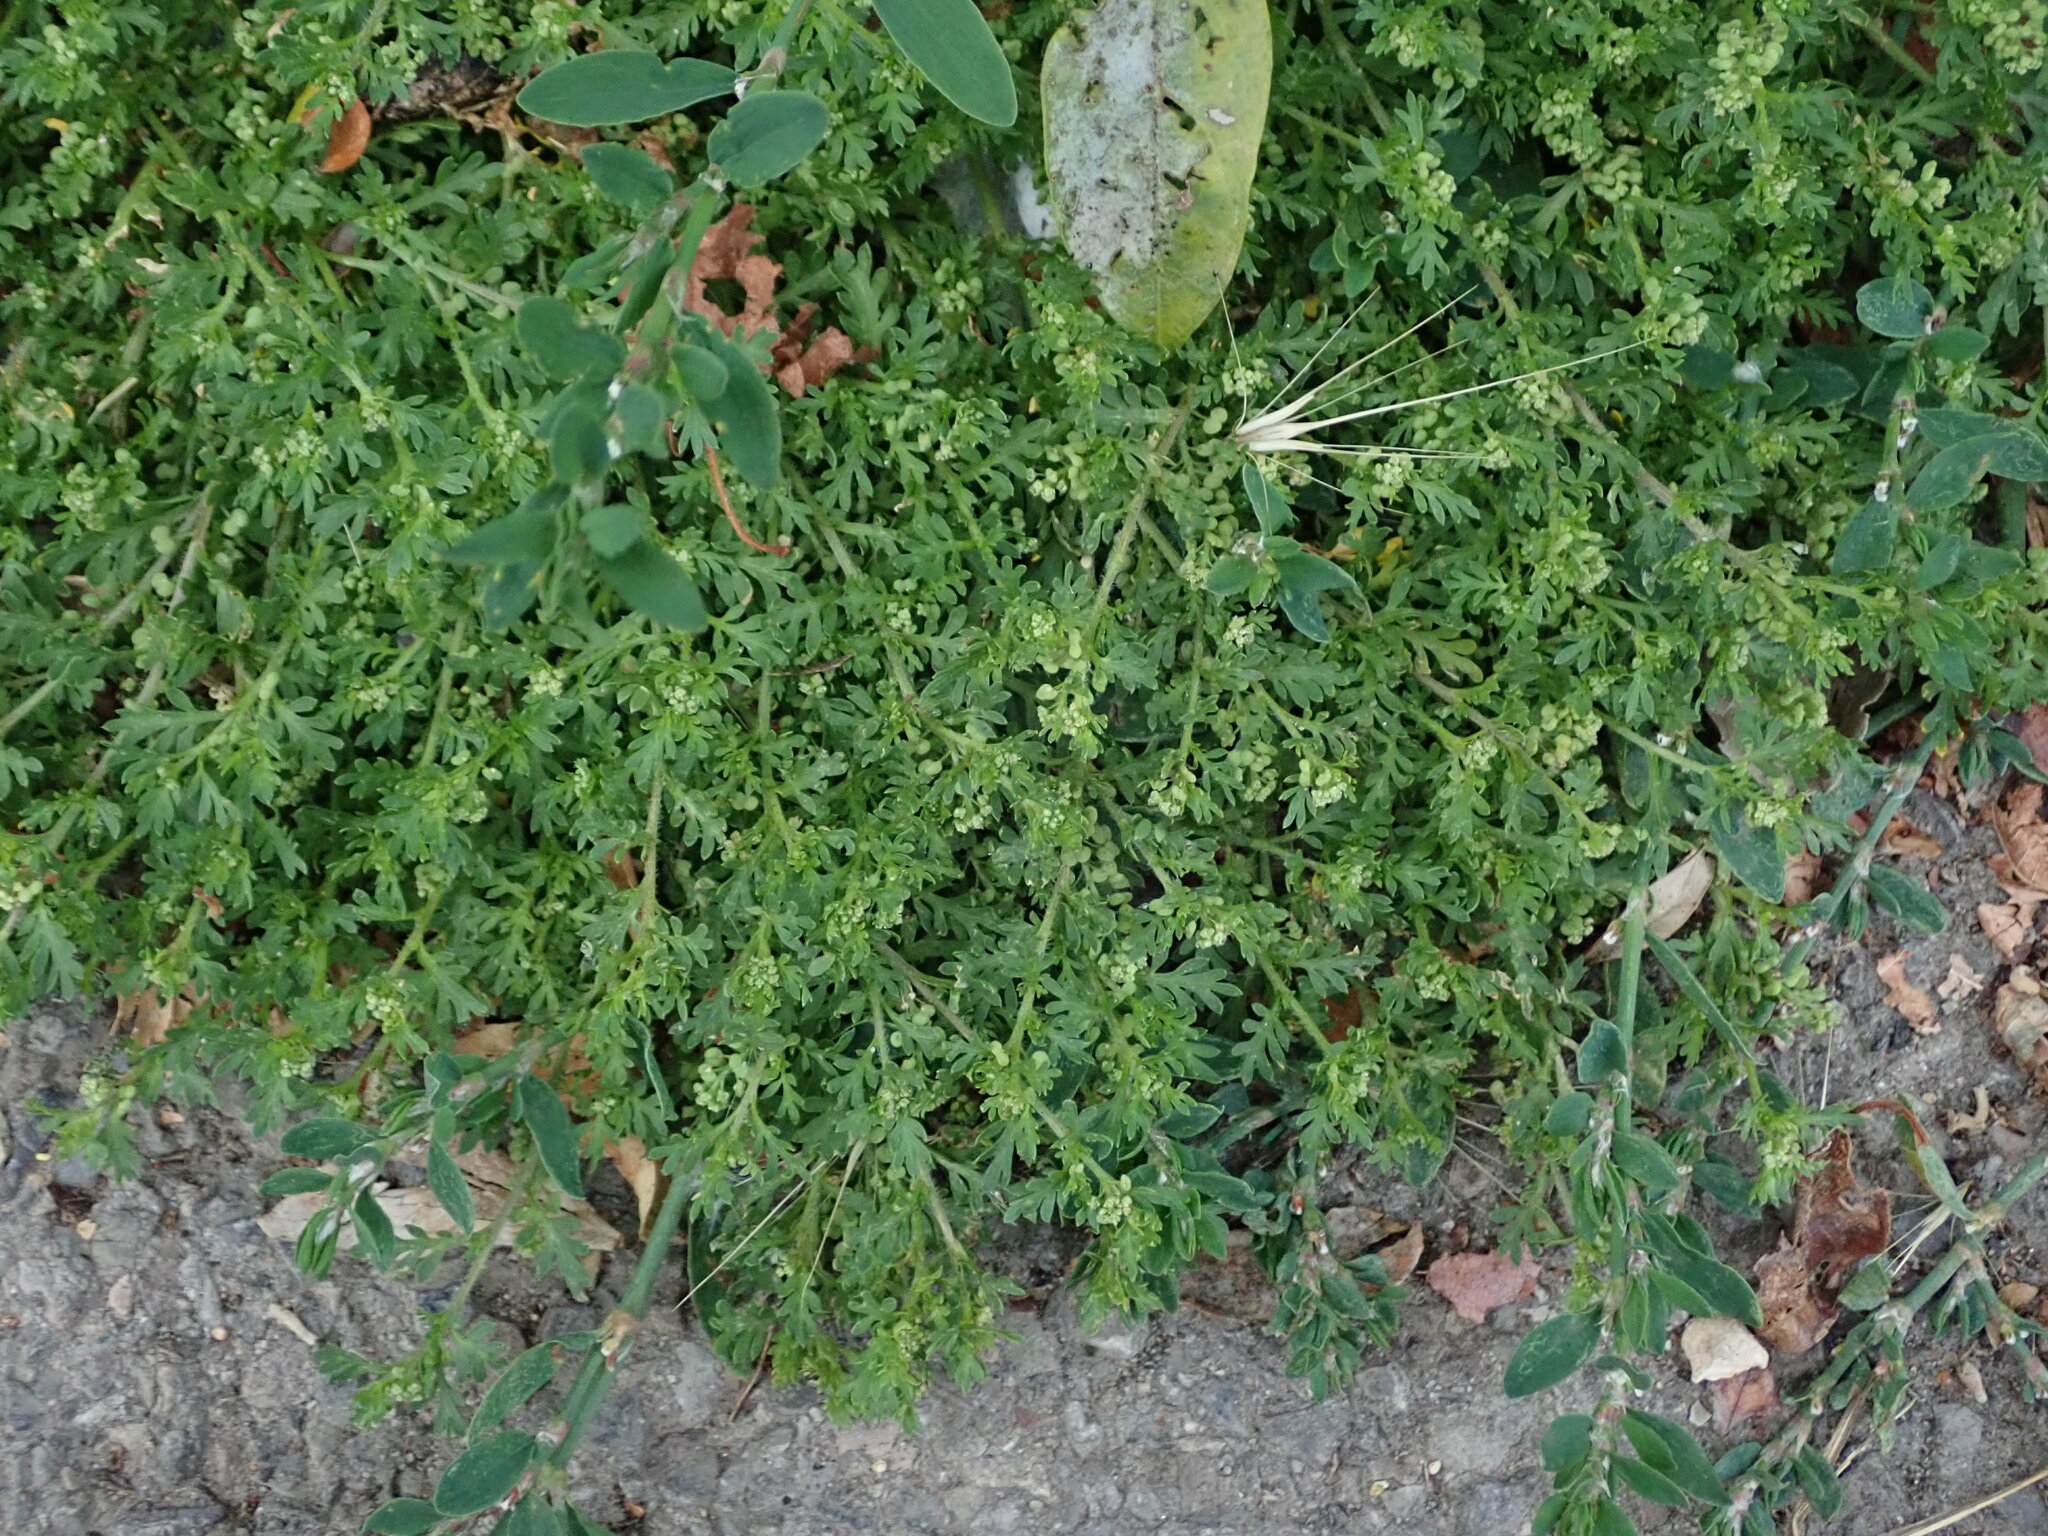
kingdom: Plantae
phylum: Tracheophyta
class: Magnoliopsida
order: Brassicales
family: Brassicaceae
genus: Lepidium
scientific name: Lepidium didymum
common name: Lesser swinecress
